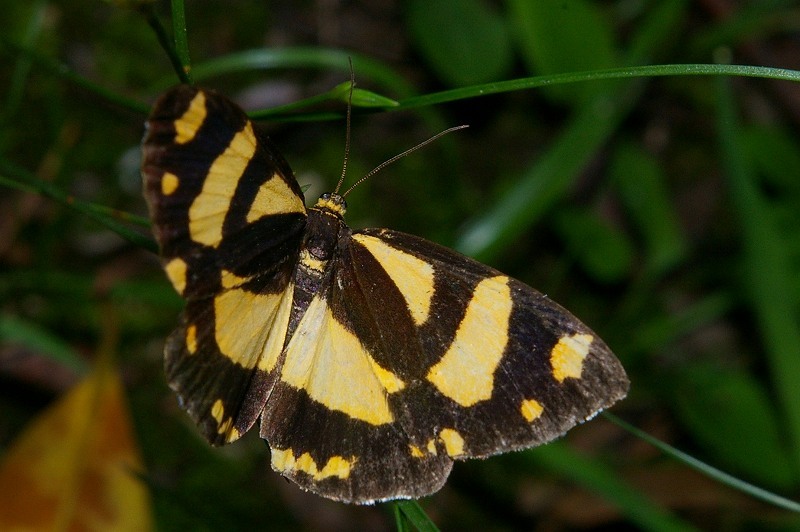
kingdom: Animalia
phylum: Arthropoda
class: Insecta
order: Lepidoptera
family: Epicopeiidae
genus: Psychostrophia
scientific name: Psychostrophia melanargia
